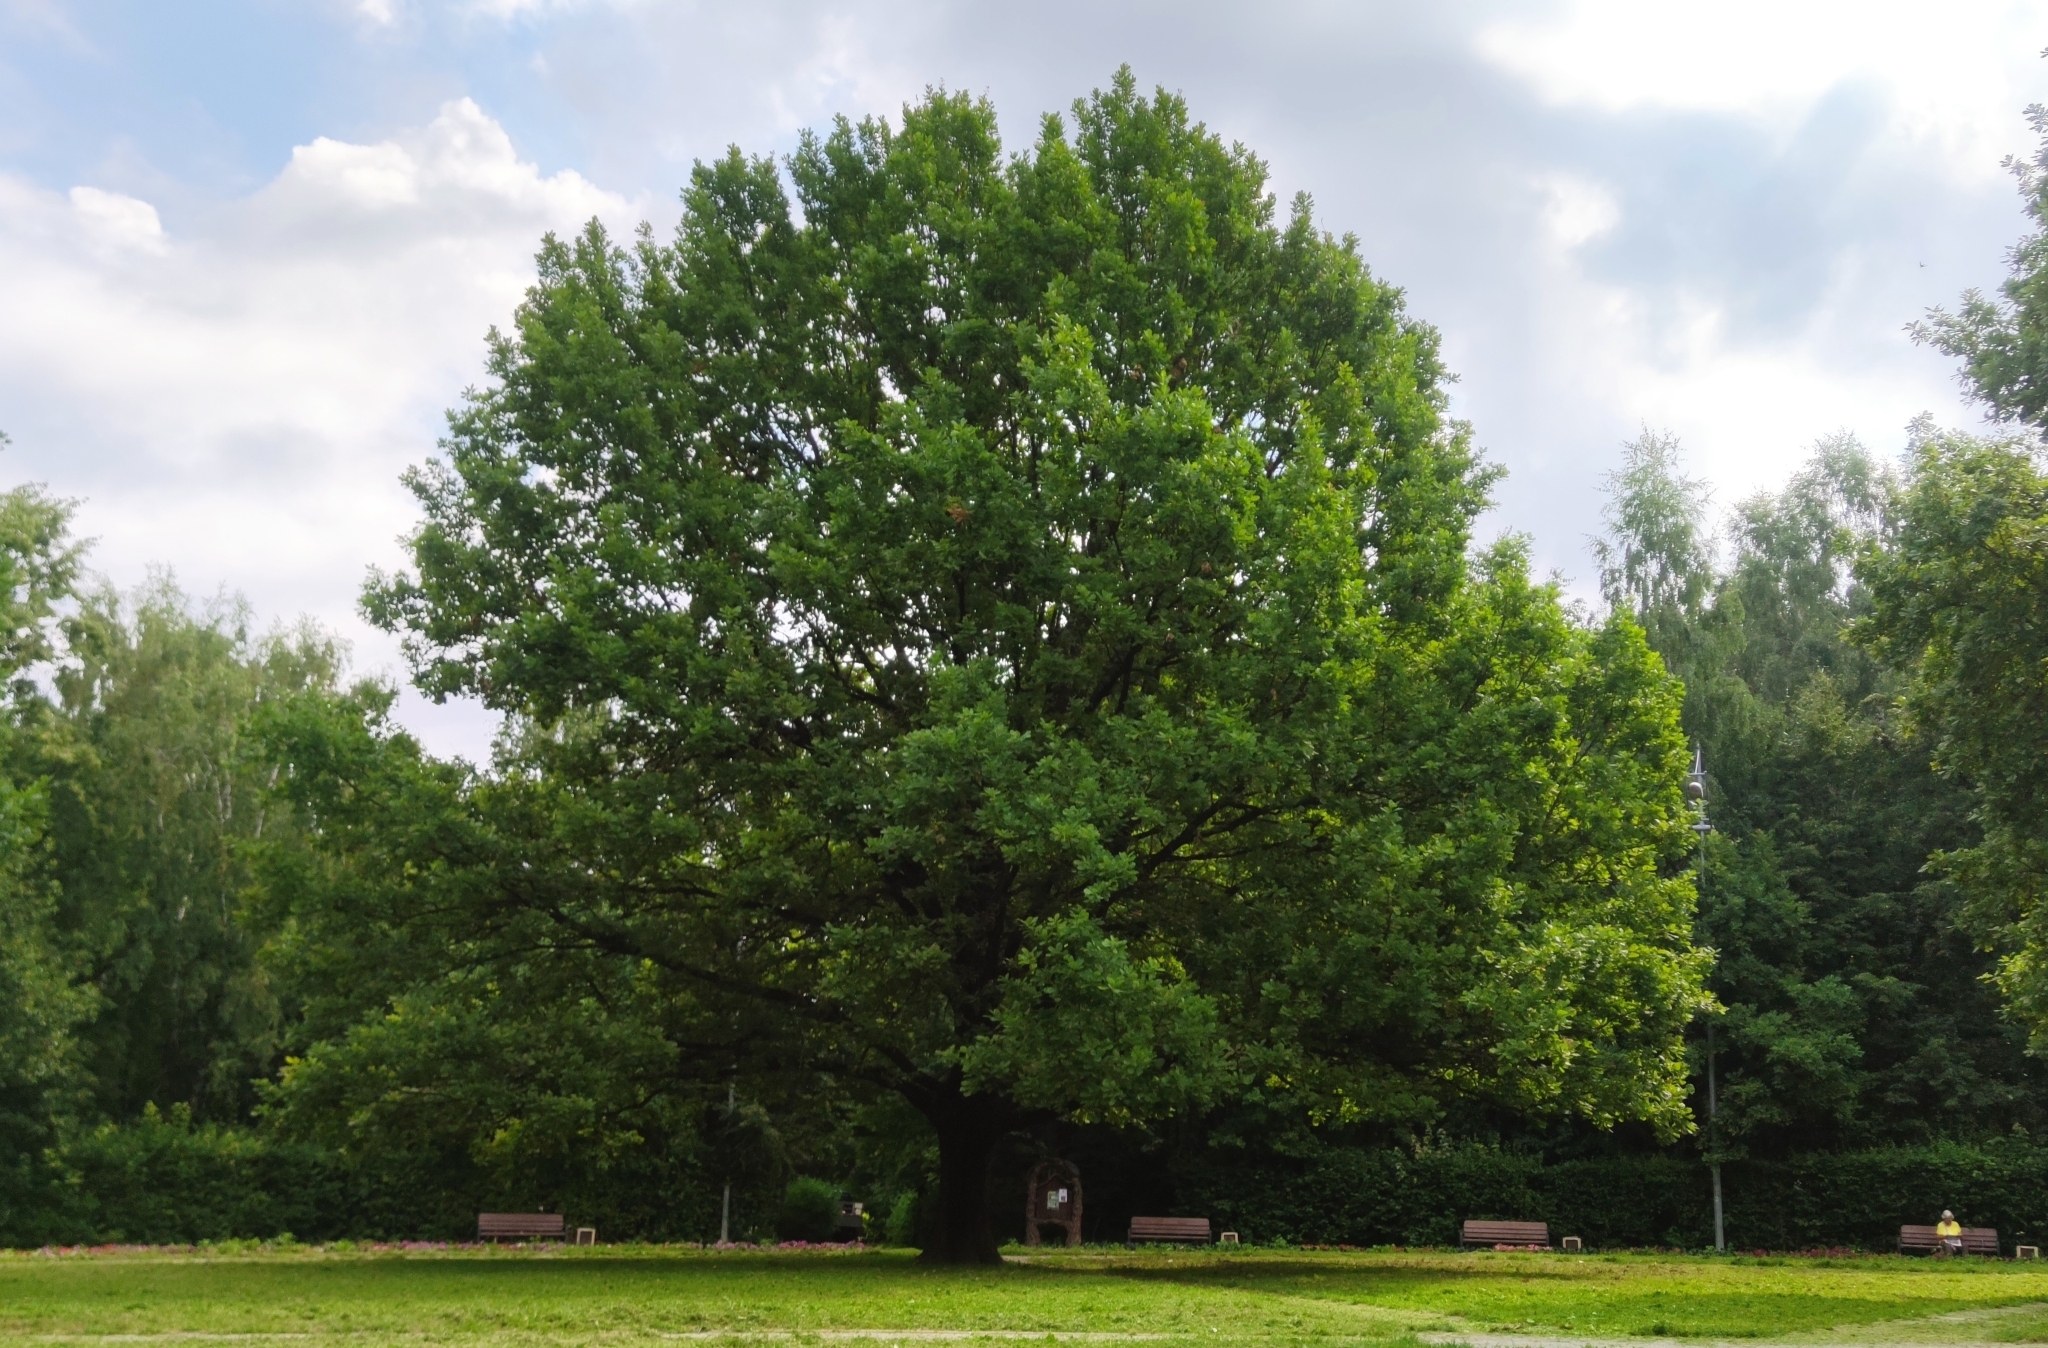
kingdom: Plantae
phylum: Tracheophyta
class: Magnoliopsida
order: Fagales
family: Fagaceae
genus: Quercus
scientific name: Quercus robur
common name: Pedunculate oak
